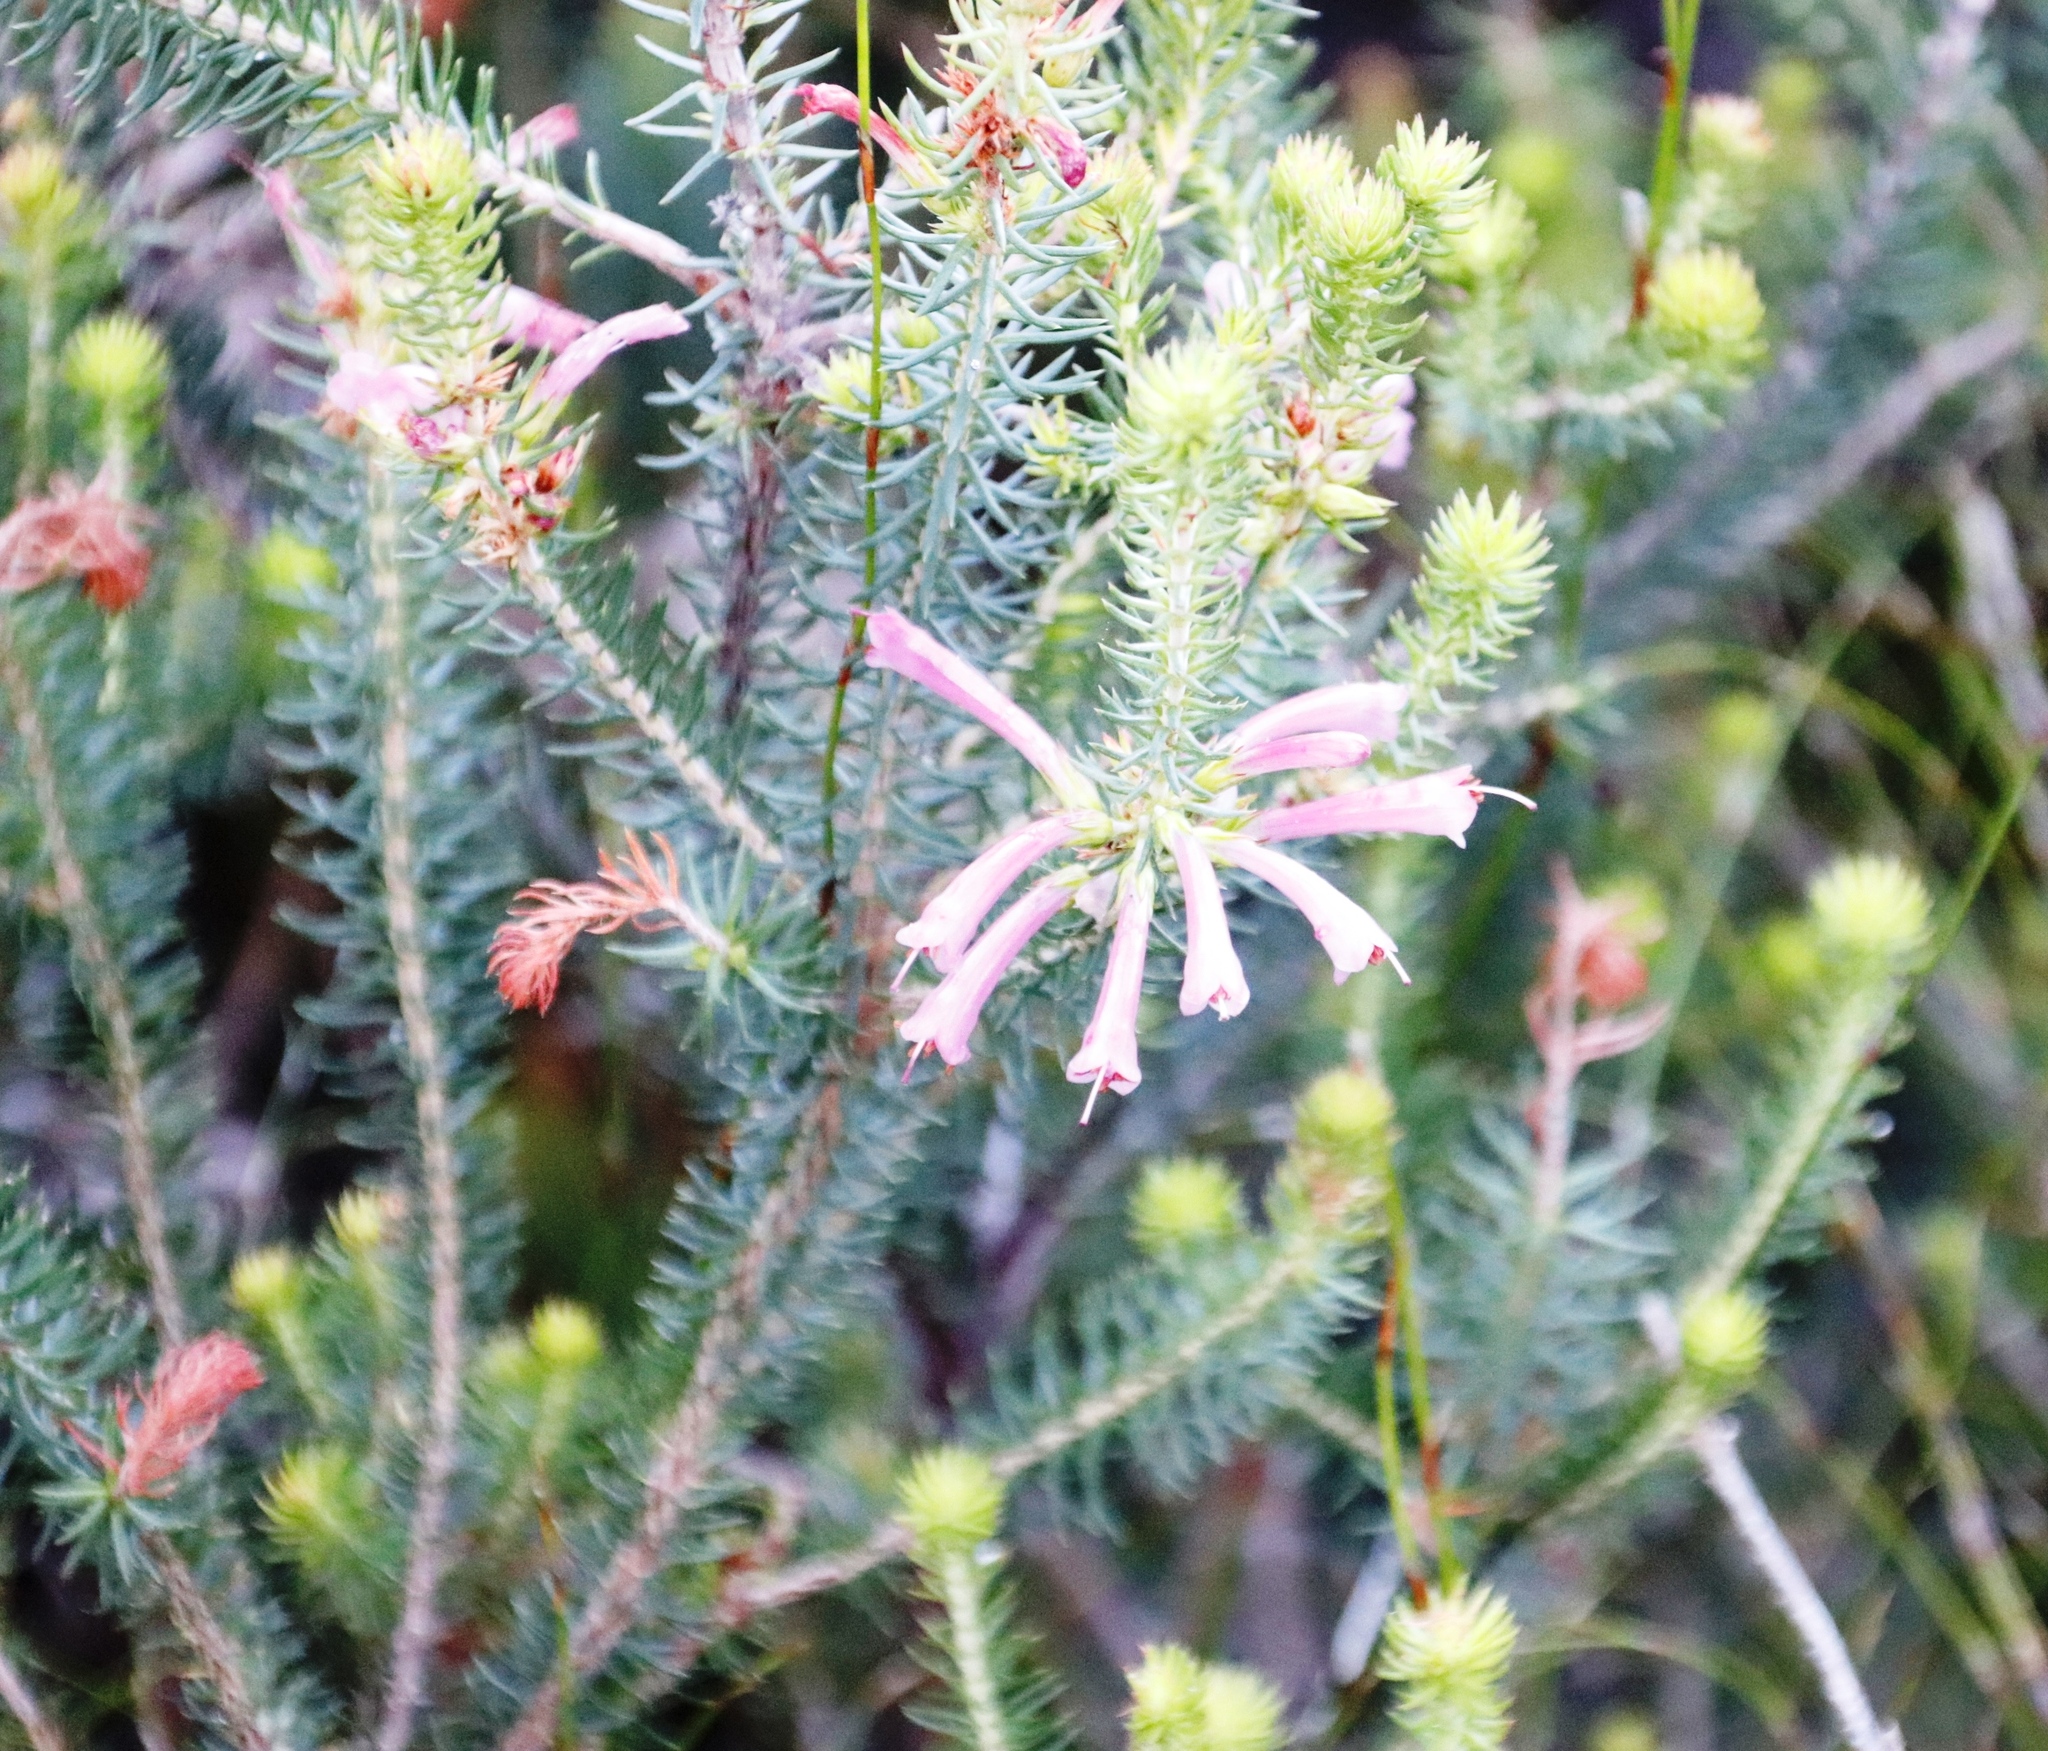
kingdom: Plantae
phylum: Tracheophyta
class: Magnoliopsida
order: Ericales
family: Ericaceae
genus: Erica
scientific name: Erica abietina
